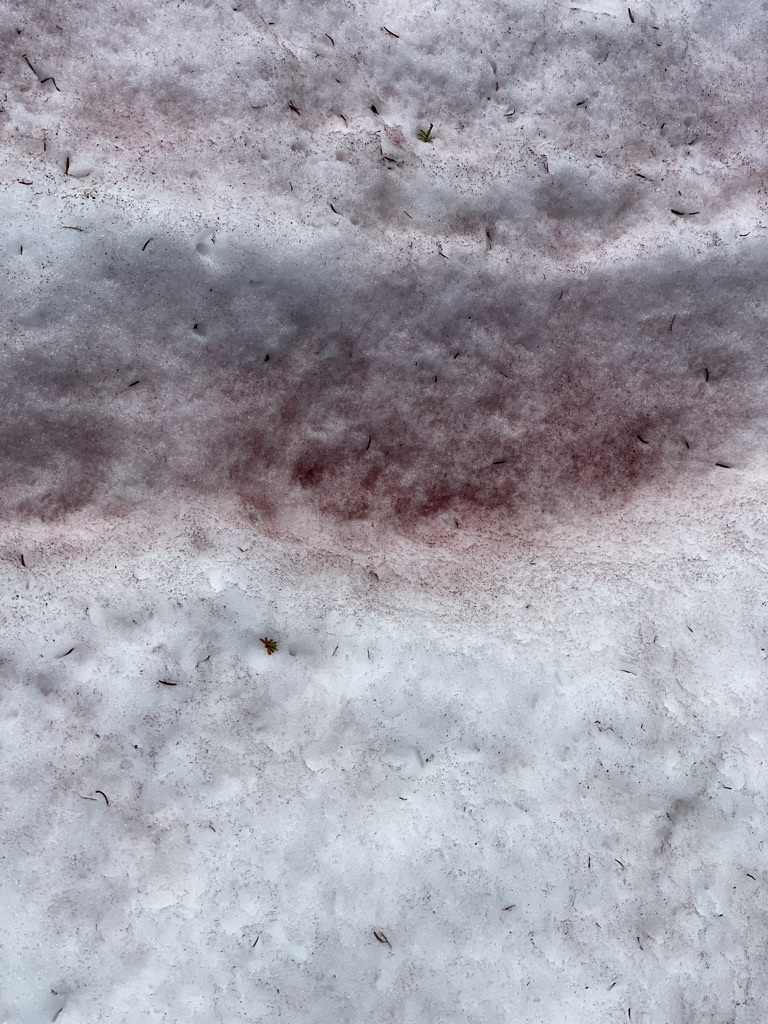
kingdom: Plantae
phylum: Chlorophyta
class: Chlorophyceae
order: Volvocales
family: Chlamydomonadaceae
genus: Chlamydomonas
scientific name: Chlamydomonas nivalis
